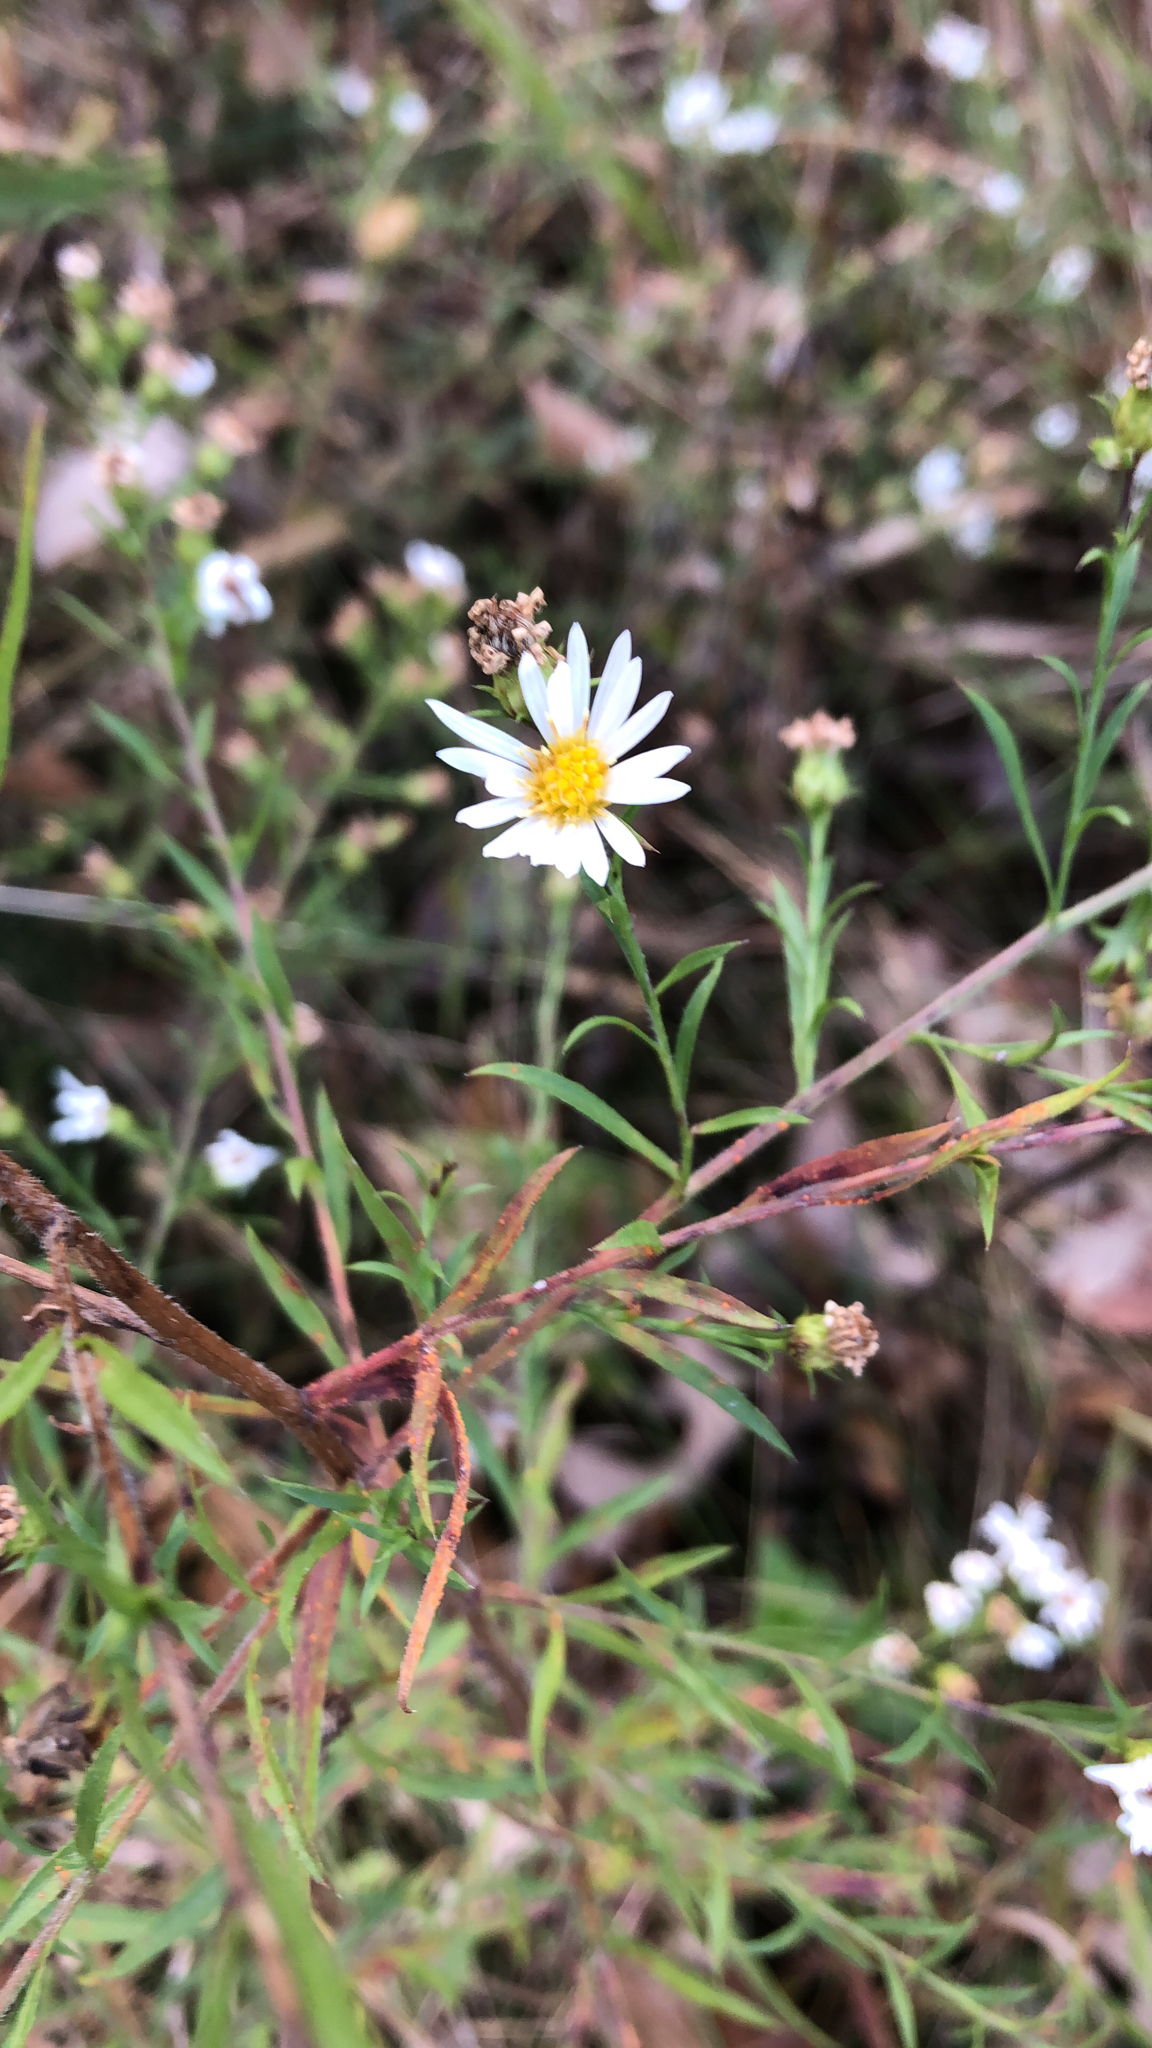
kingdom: Plantae
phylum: Tracheophyta
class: Magnoliopsida
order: Asterales
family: Asteraceae
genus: Symphyotrichum
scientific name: Symphyotrichum pilosum
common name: Awl aster
